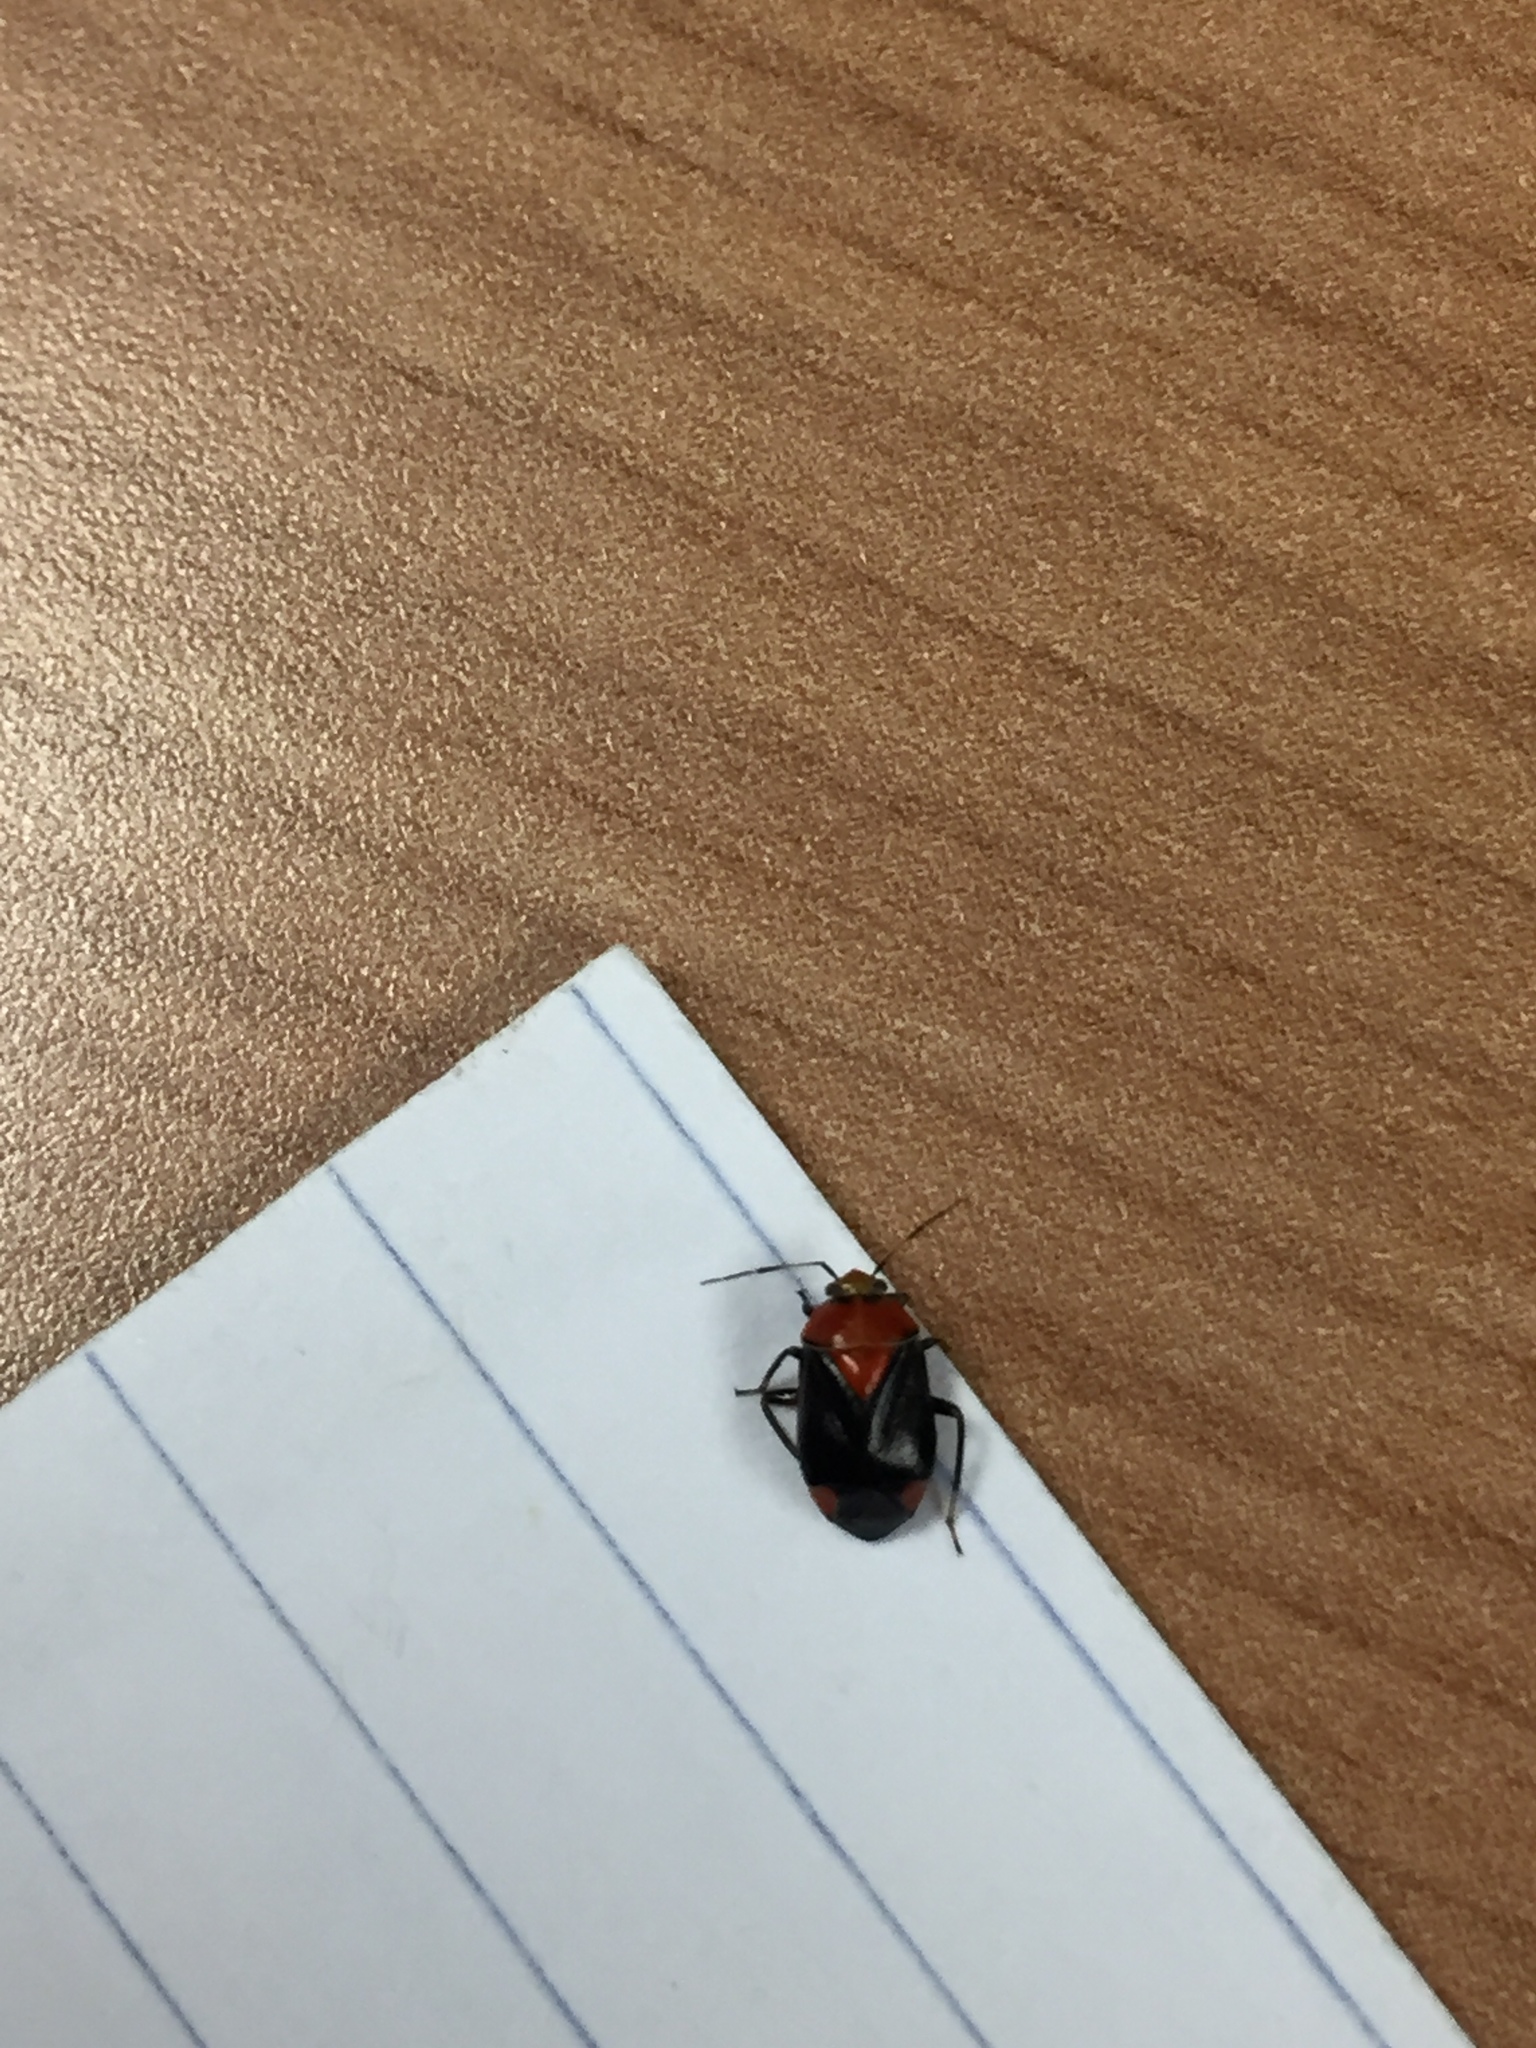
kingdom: Animalia
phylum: Arthropoda
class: Insecta
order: Hemiptera
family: Miridae
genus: Neocapsus
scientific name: Neocapsus cuneatus
